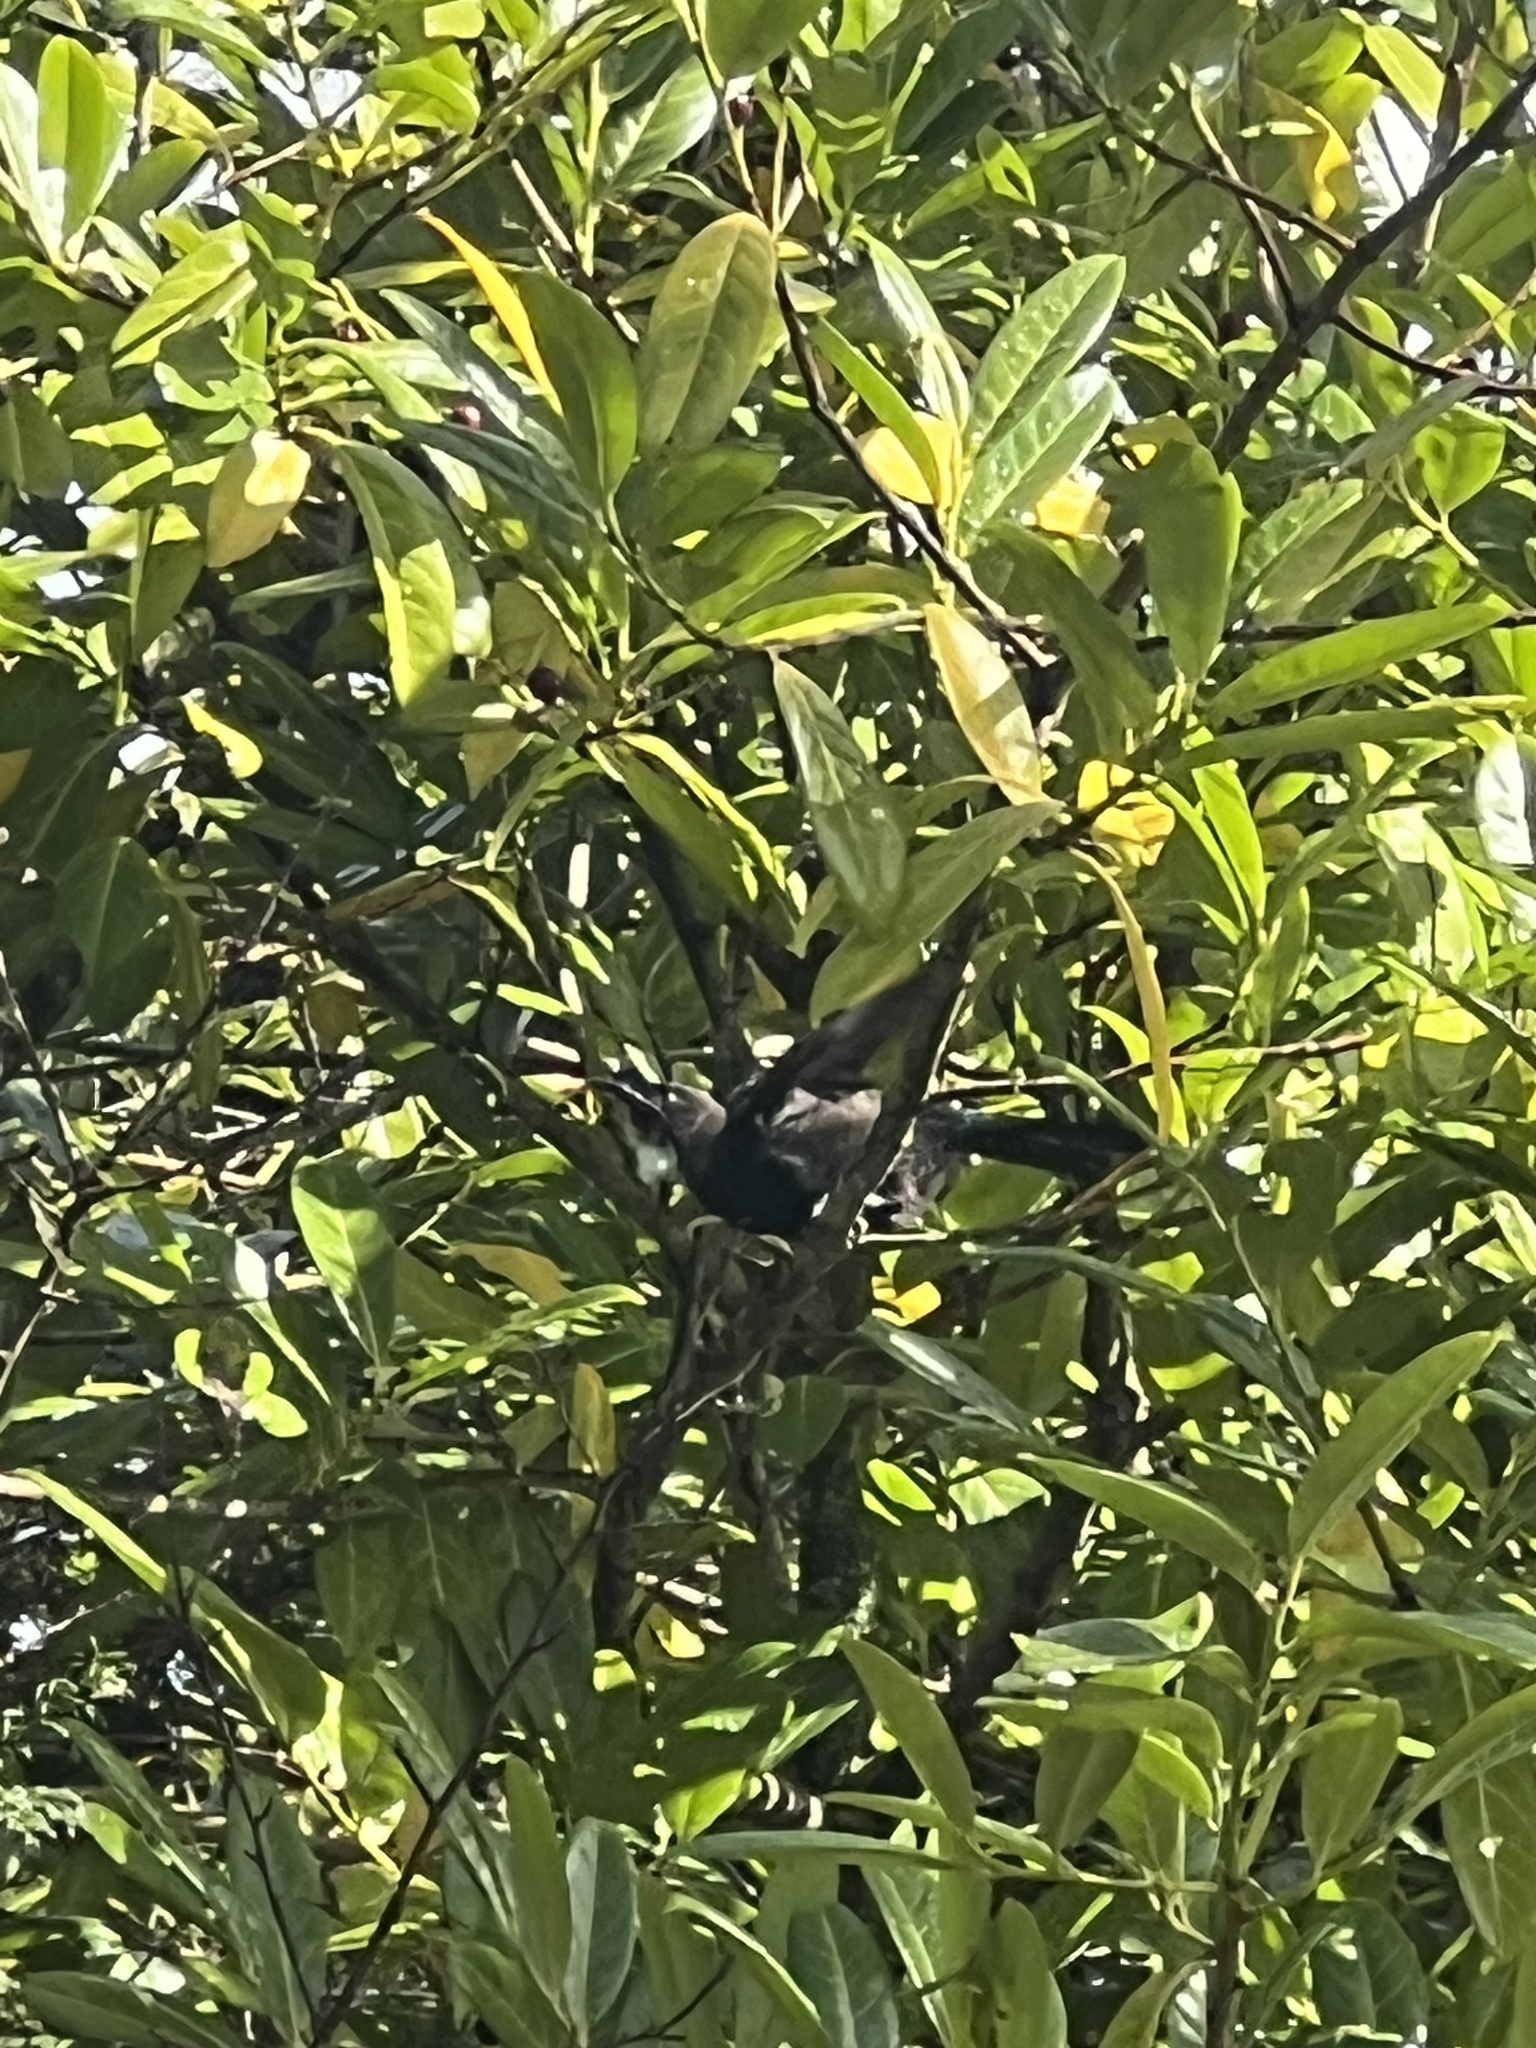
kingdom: Animalia
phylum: Chordata
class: Aves
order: Passeriformes
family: Meliphagidae
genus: Prosthemadera
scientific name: Prosthemadera novaeseelandiae
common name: Tui
